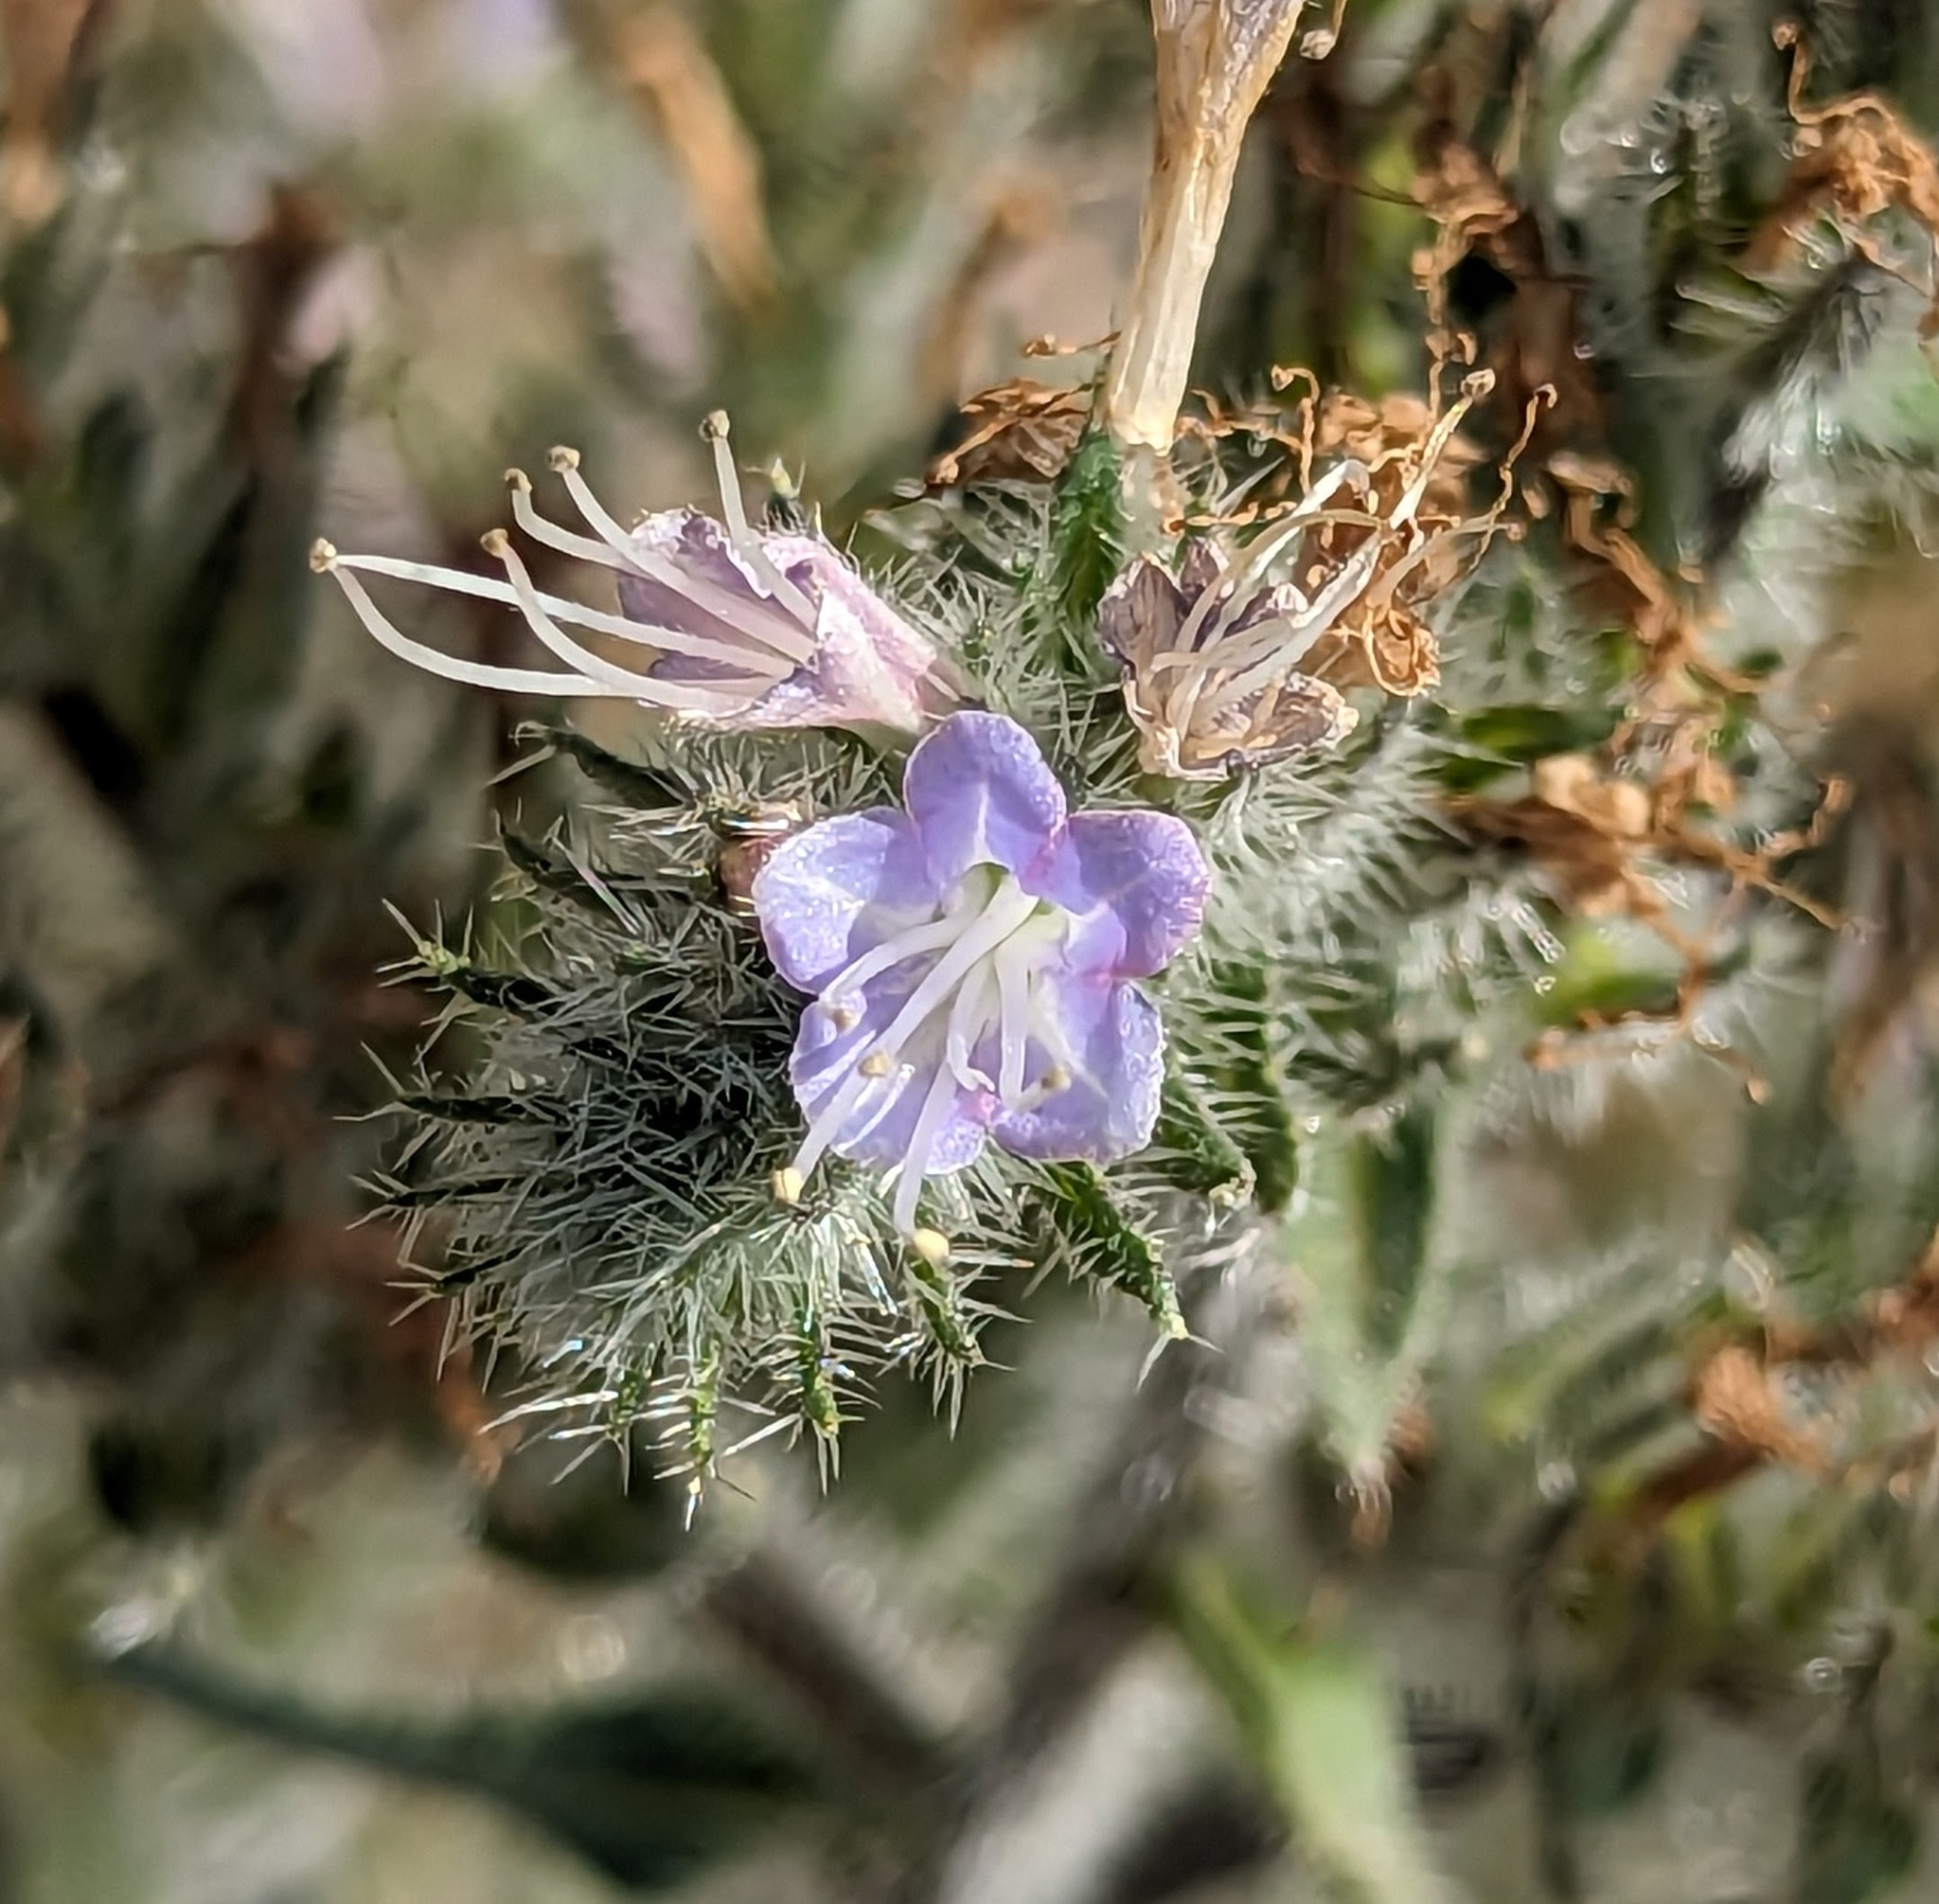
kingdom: Plantae
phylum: Tracheophyta
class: Magnoliopsida
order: Boraginales
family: Boraginaceae
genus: Echium
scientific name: Echium italicum
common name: Italian viper's bugloss
